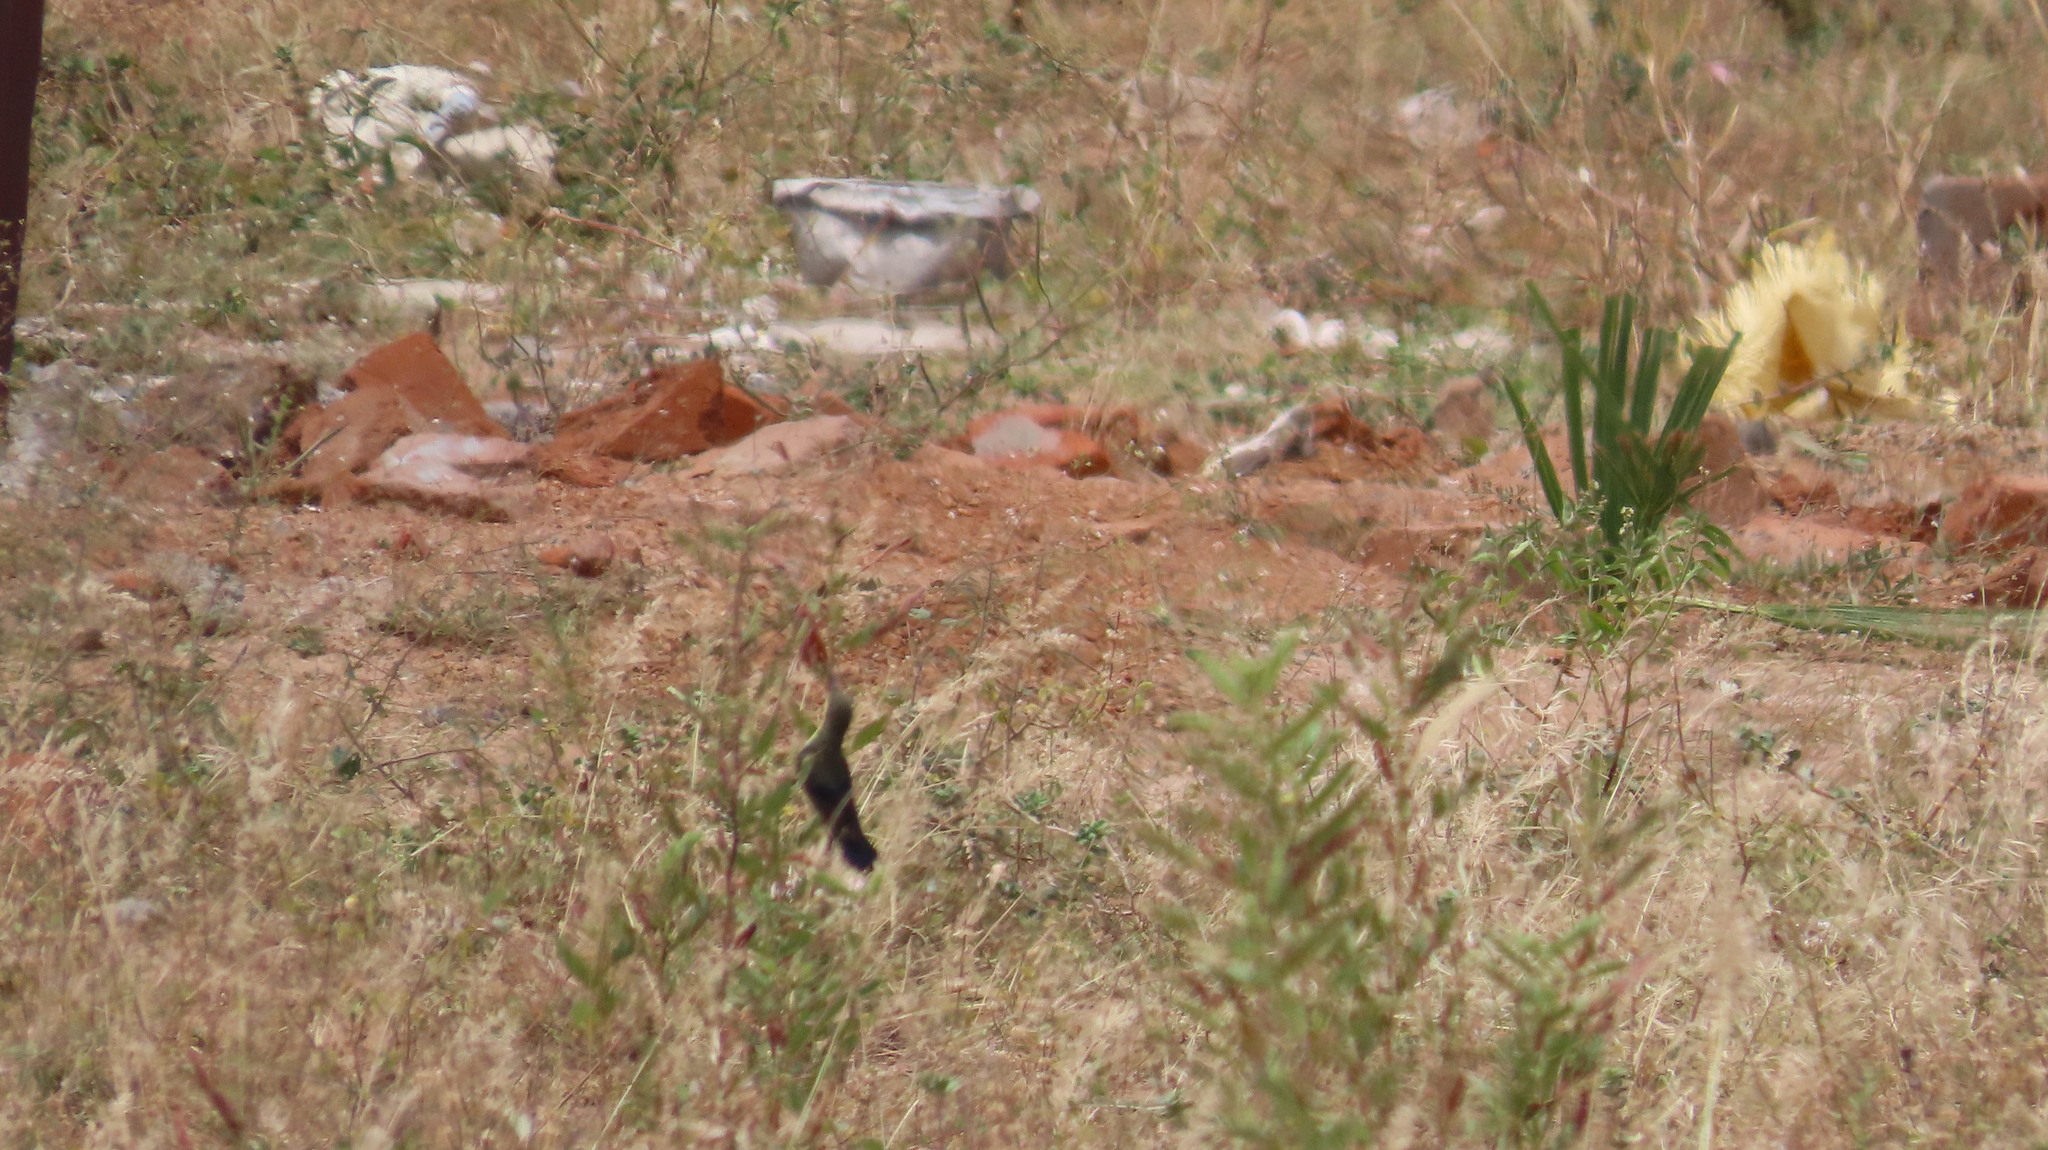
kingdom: Animalia
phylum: Chordata
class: Aves
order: Passeriformes
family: Nectariniidae
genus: Cinnyris
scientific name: Cinnyris asiaticus
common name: Purple sunbird
